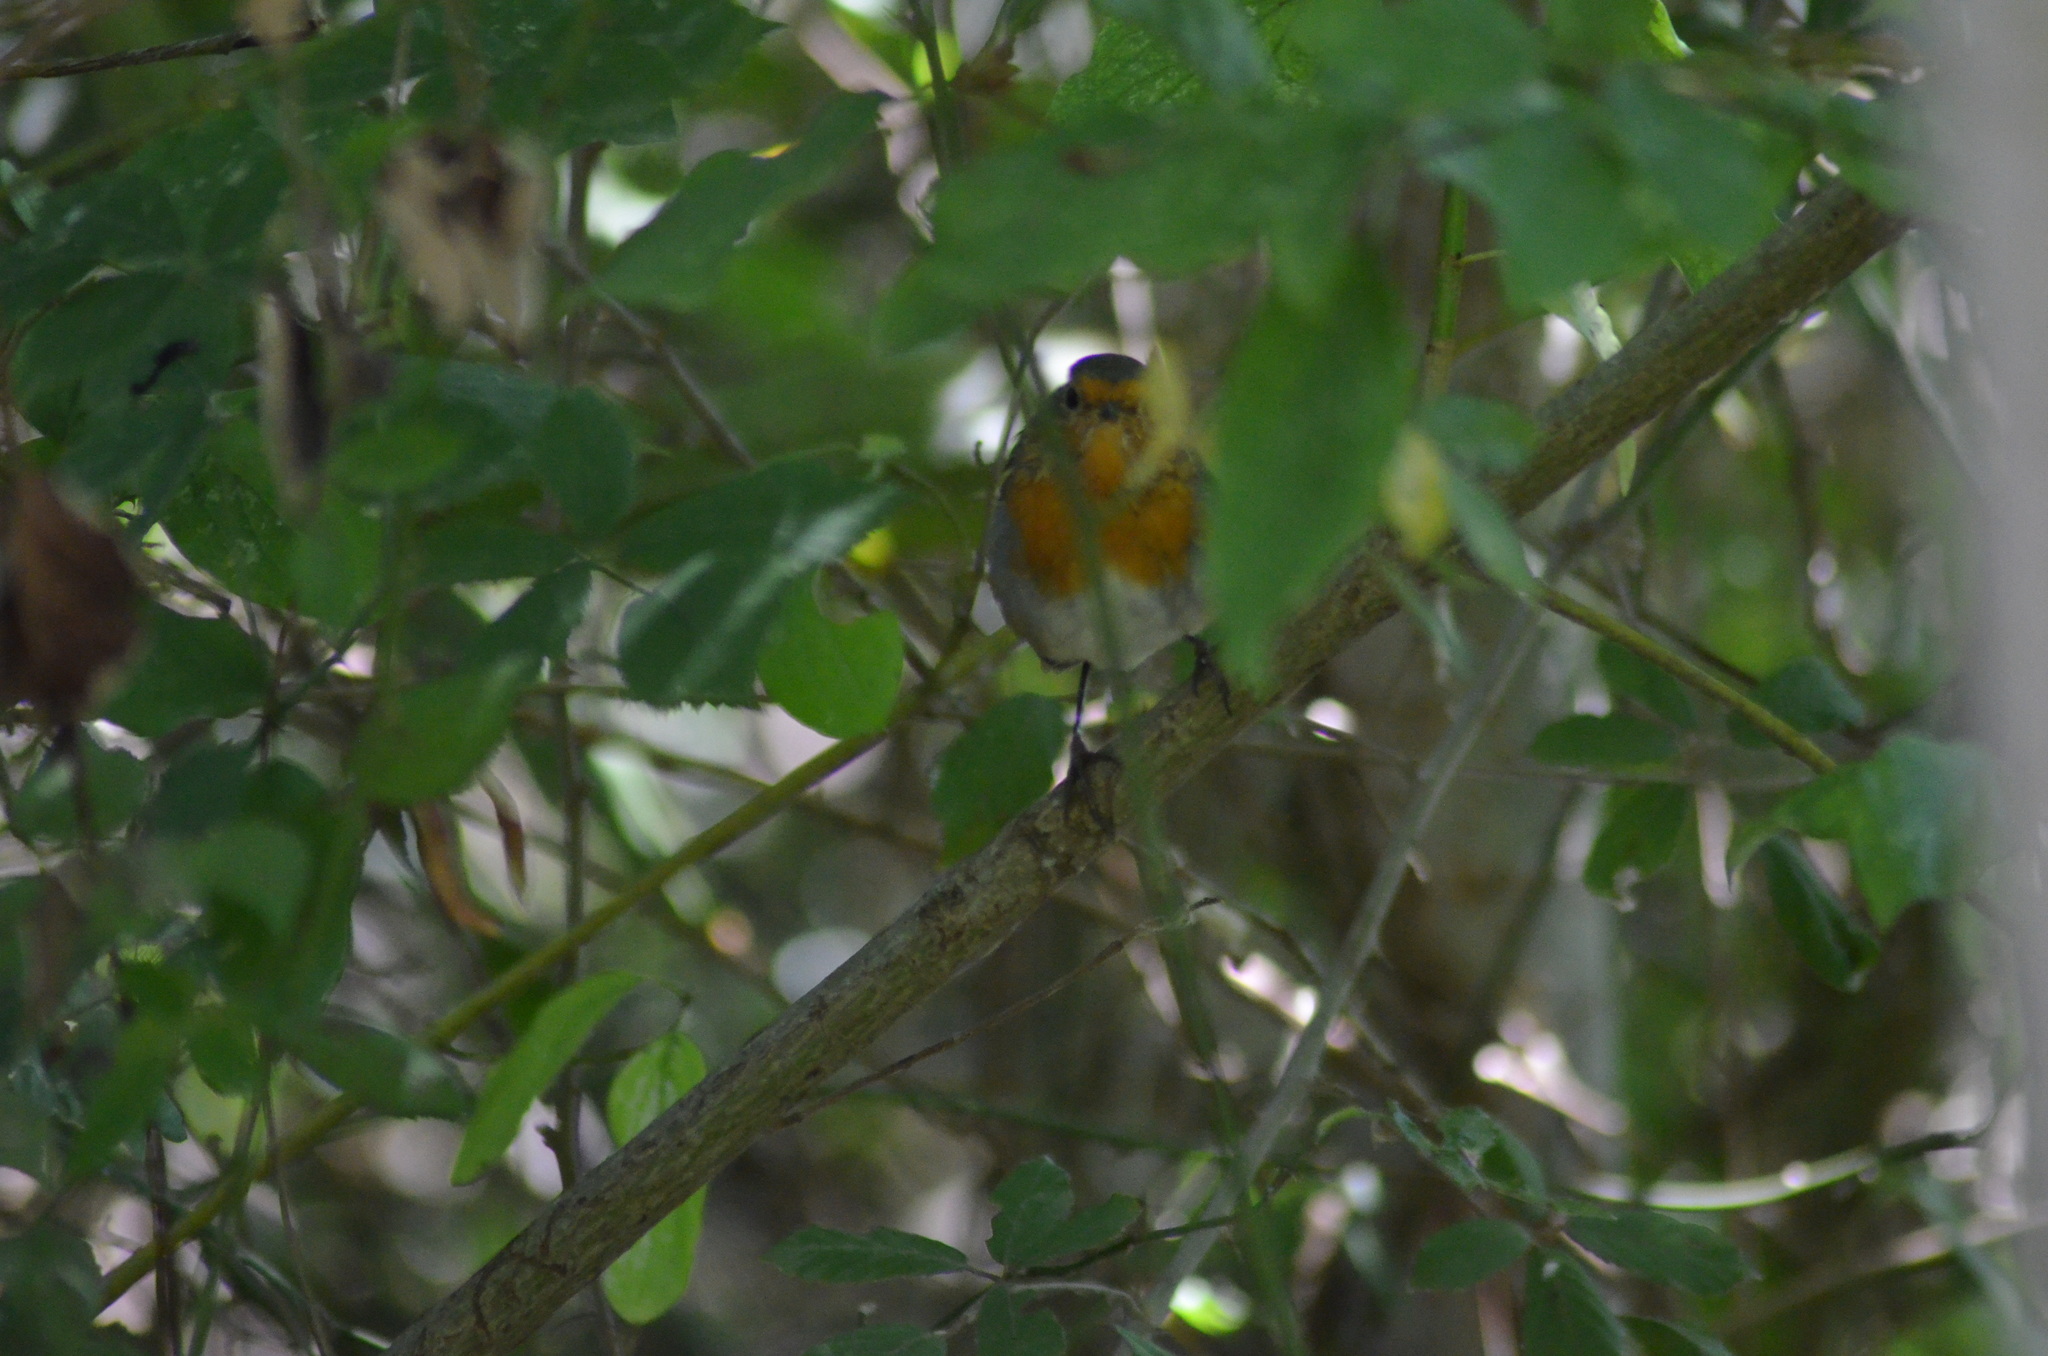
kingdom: Animalia
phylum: Chordata
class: Aves
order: Passeriformes
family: Muscicapidae
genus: Erithacus
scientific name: Erithacus rubecula
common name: European robin
